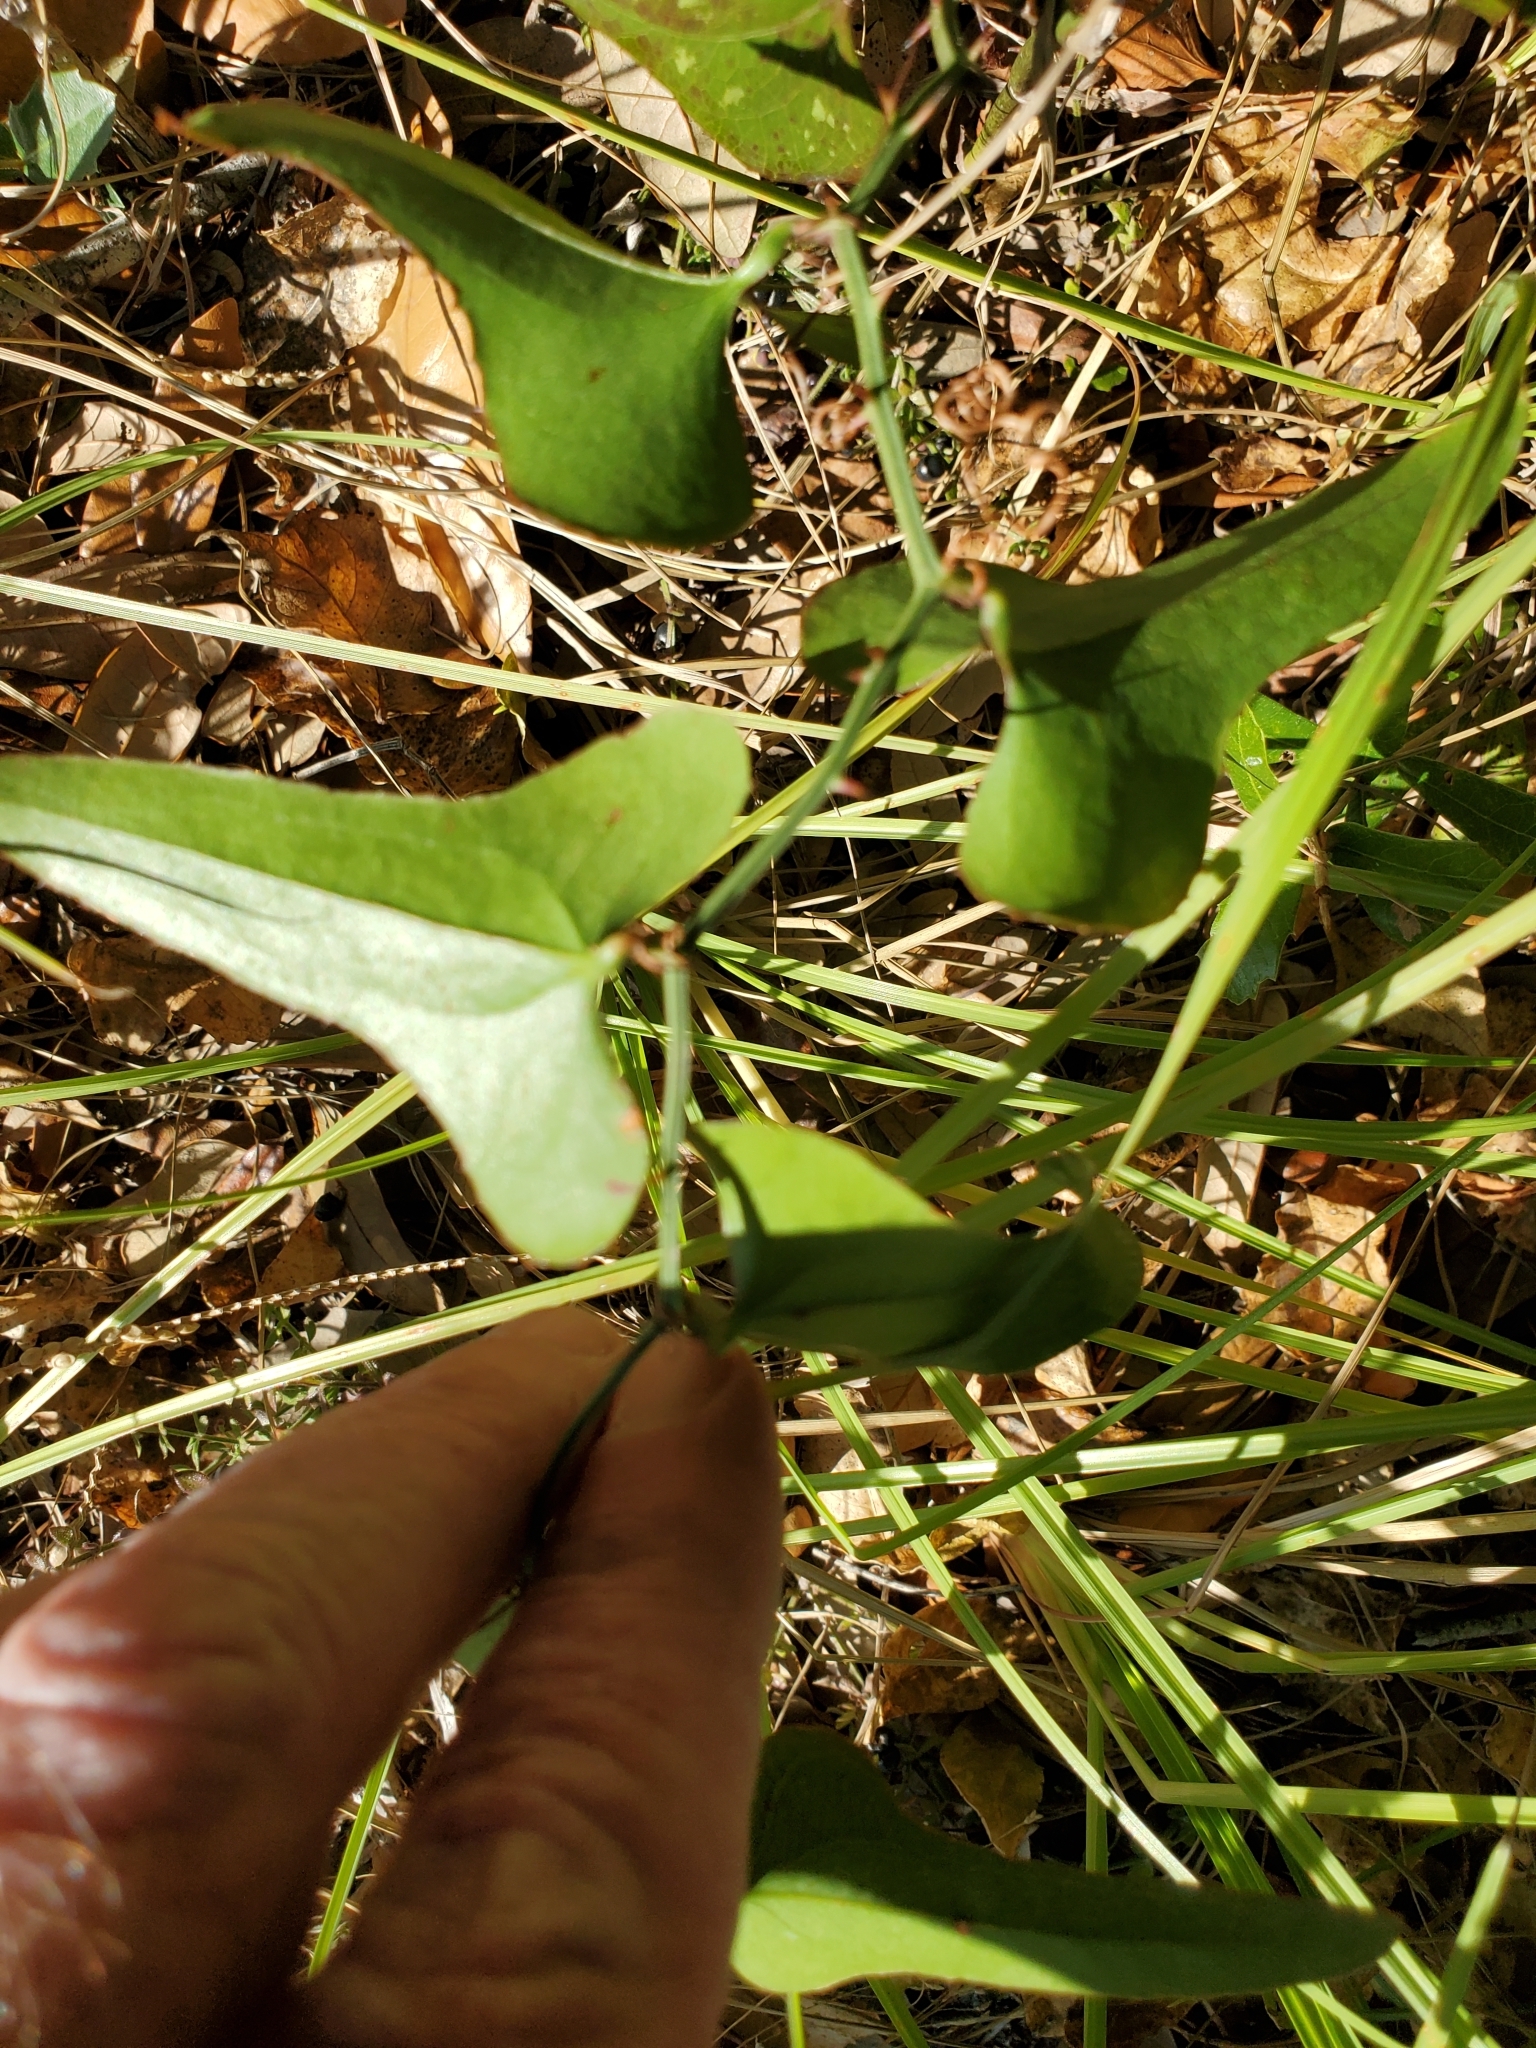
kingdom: Plantae
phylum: Tracheophyta
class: Liliopsida
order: Liliales
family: Smilacaceae
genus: Smilax
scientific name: Smilax bona-nox
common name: Catbrier
